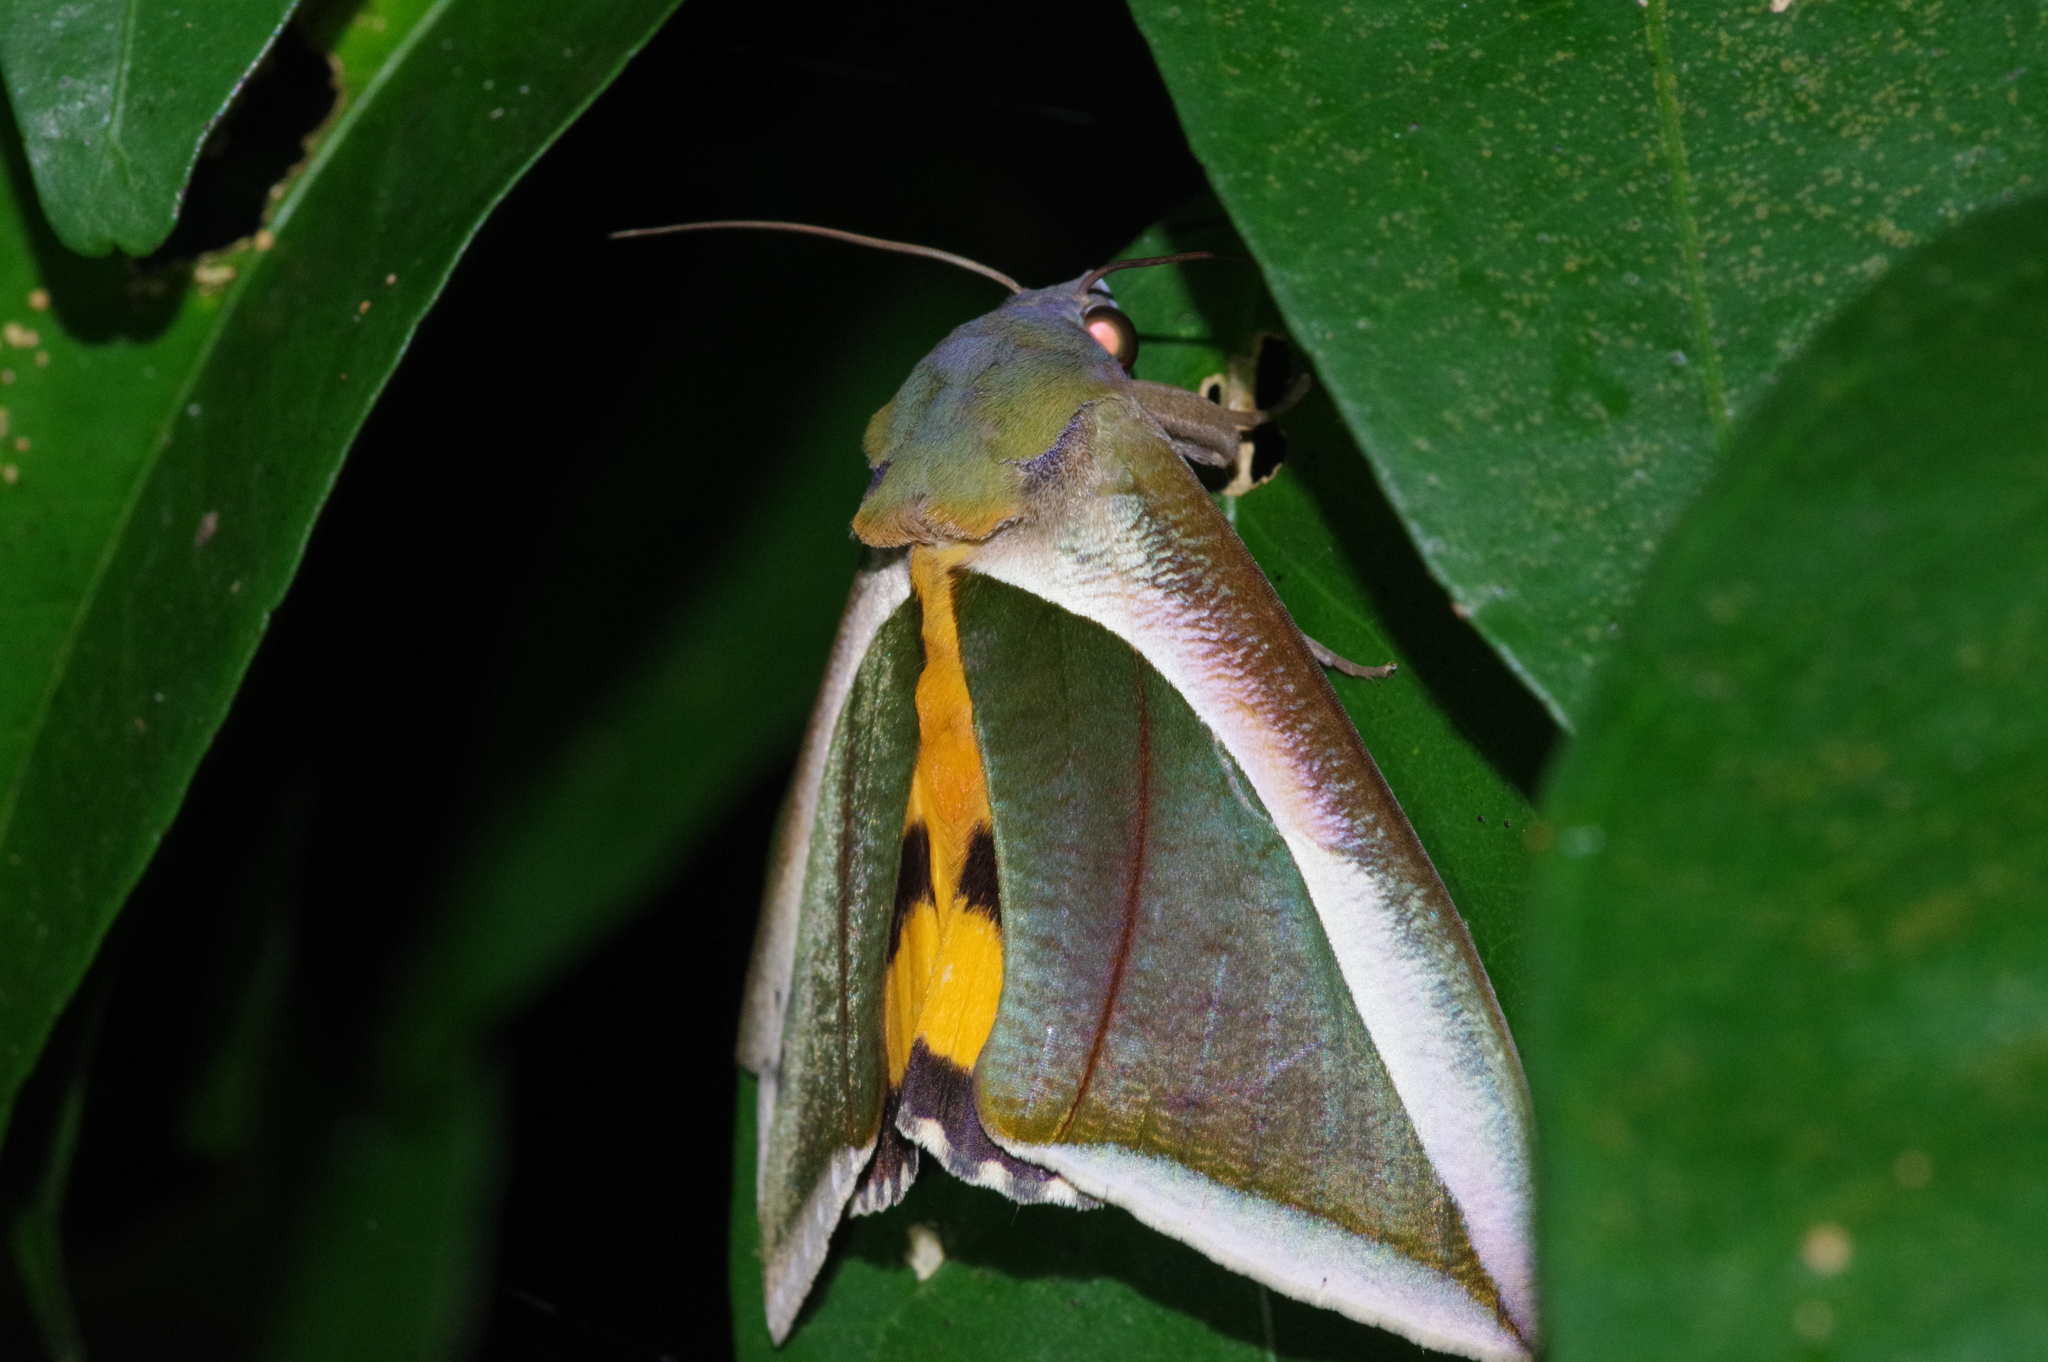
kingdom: Animalia
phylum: Arthropoda
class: Insecta
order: Lepidoptera
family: Erebidae
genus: Eudocima
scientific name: Eudocima salaminia
